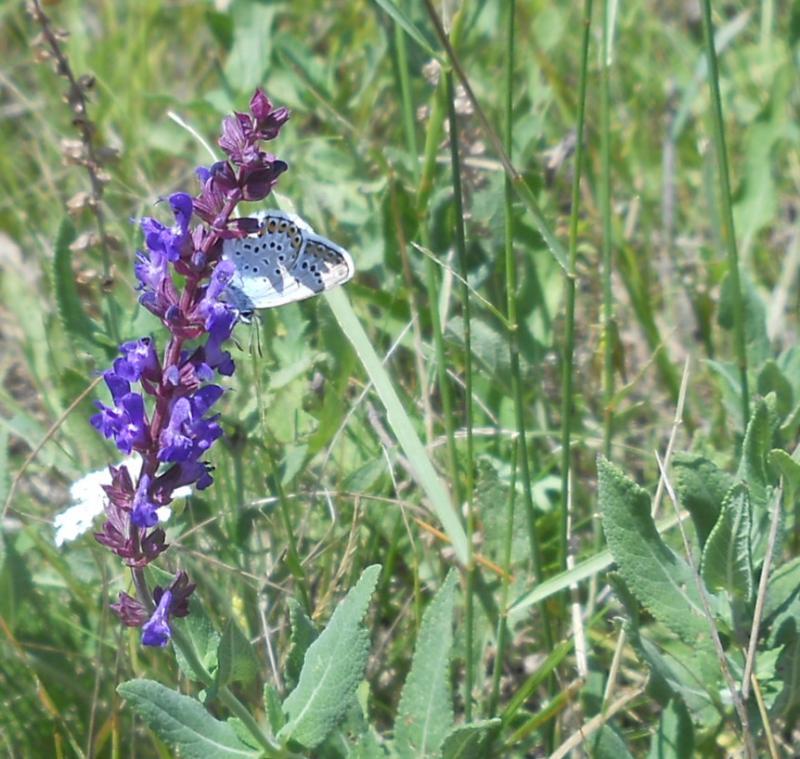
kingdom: Plantae
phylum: Tracheophyta
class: Magnoliopsida
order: Lamiales
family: Lamiaceae
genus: Salvia
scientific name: Salvia nemorosa
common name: Balkan clary
